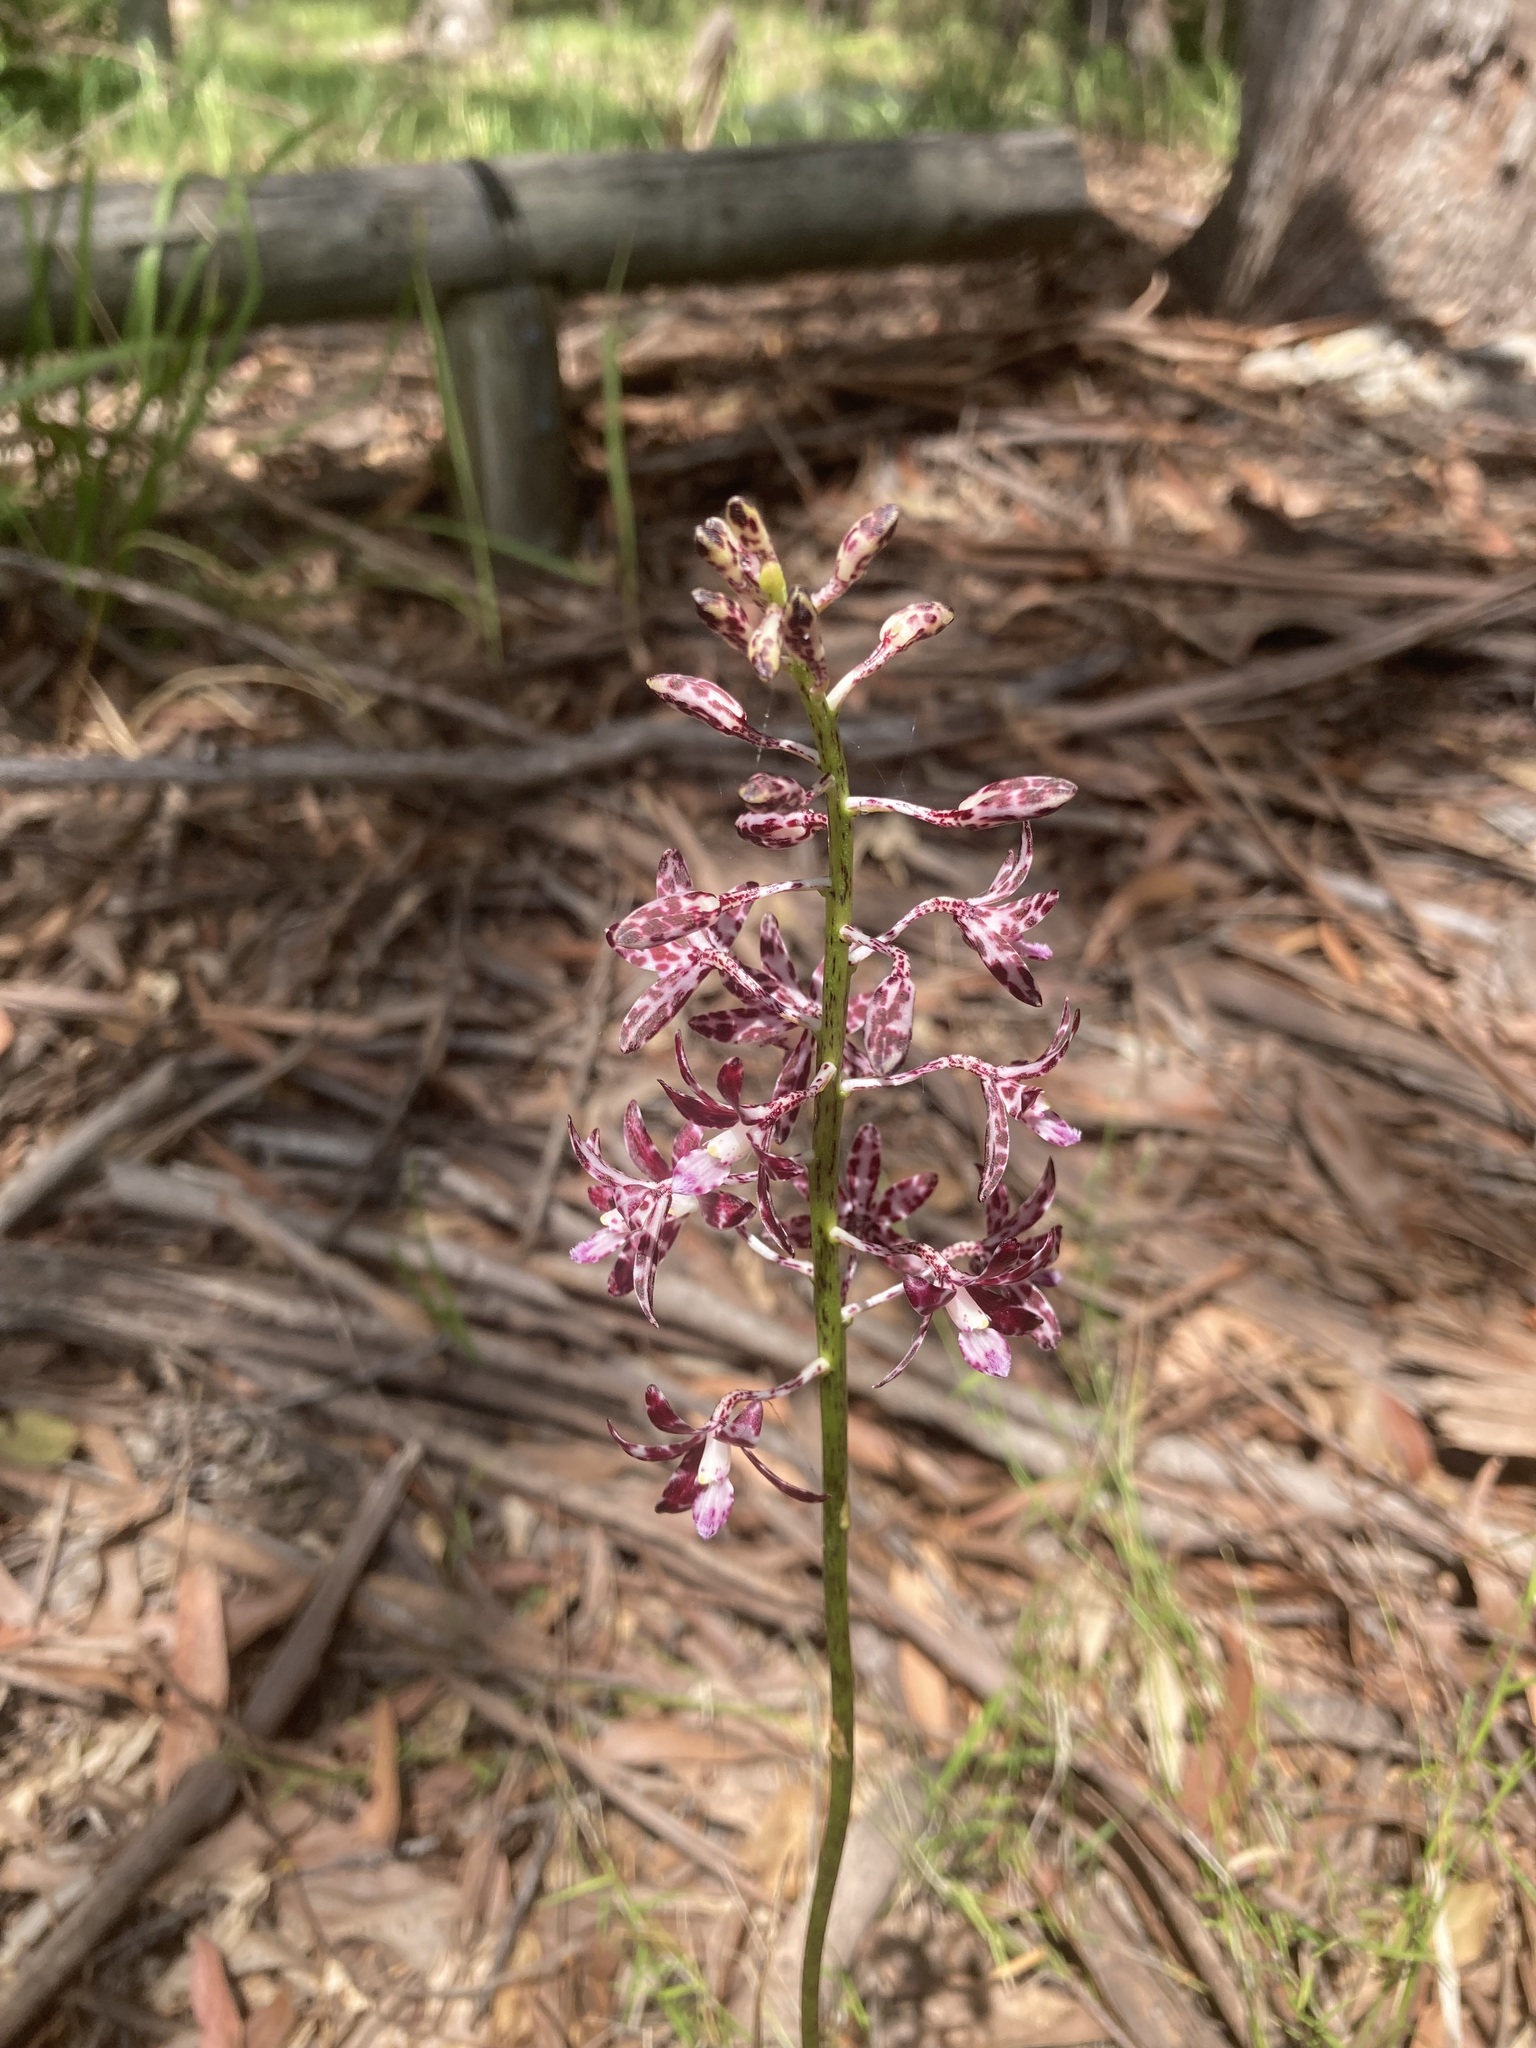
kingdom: Plantae
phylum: Tracheophyta
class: Liliopsida
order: Asparagales
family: Orchidaceae
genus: Dipodium
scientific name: Dipodium variegatum
